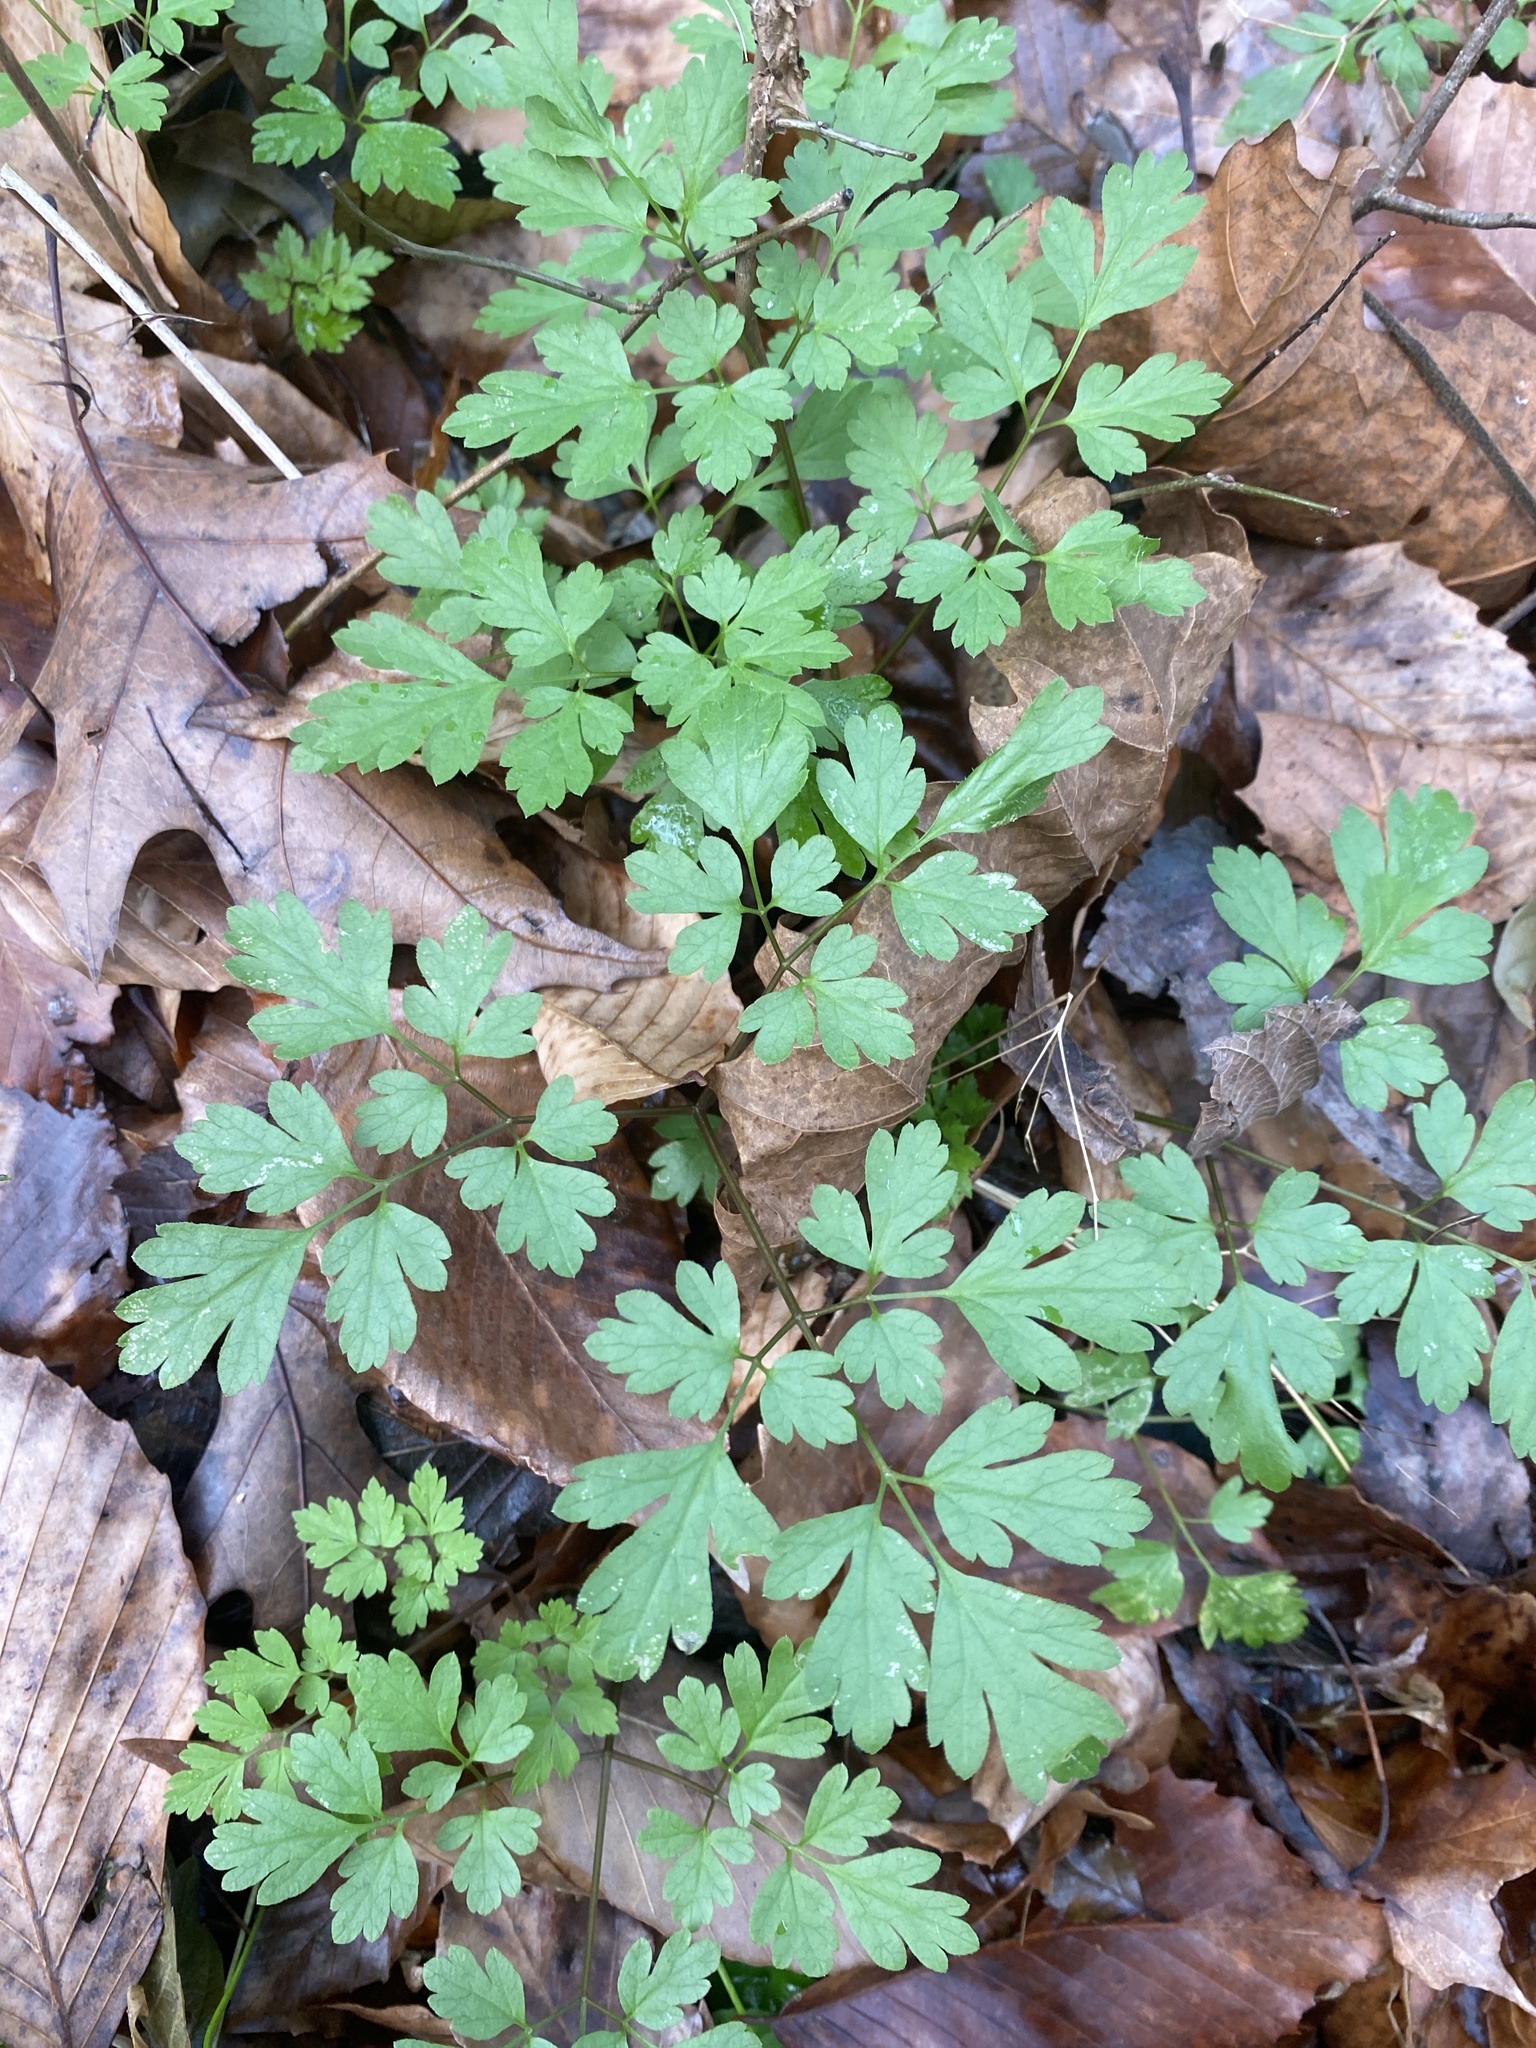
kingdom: Plantae
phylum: Tracheophyta
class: Magnoliopsida
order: Apiales
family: Apiaceae
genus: Osmorhiza
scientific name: Osmorhiza longistylis
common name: Smooth sweet cicely
